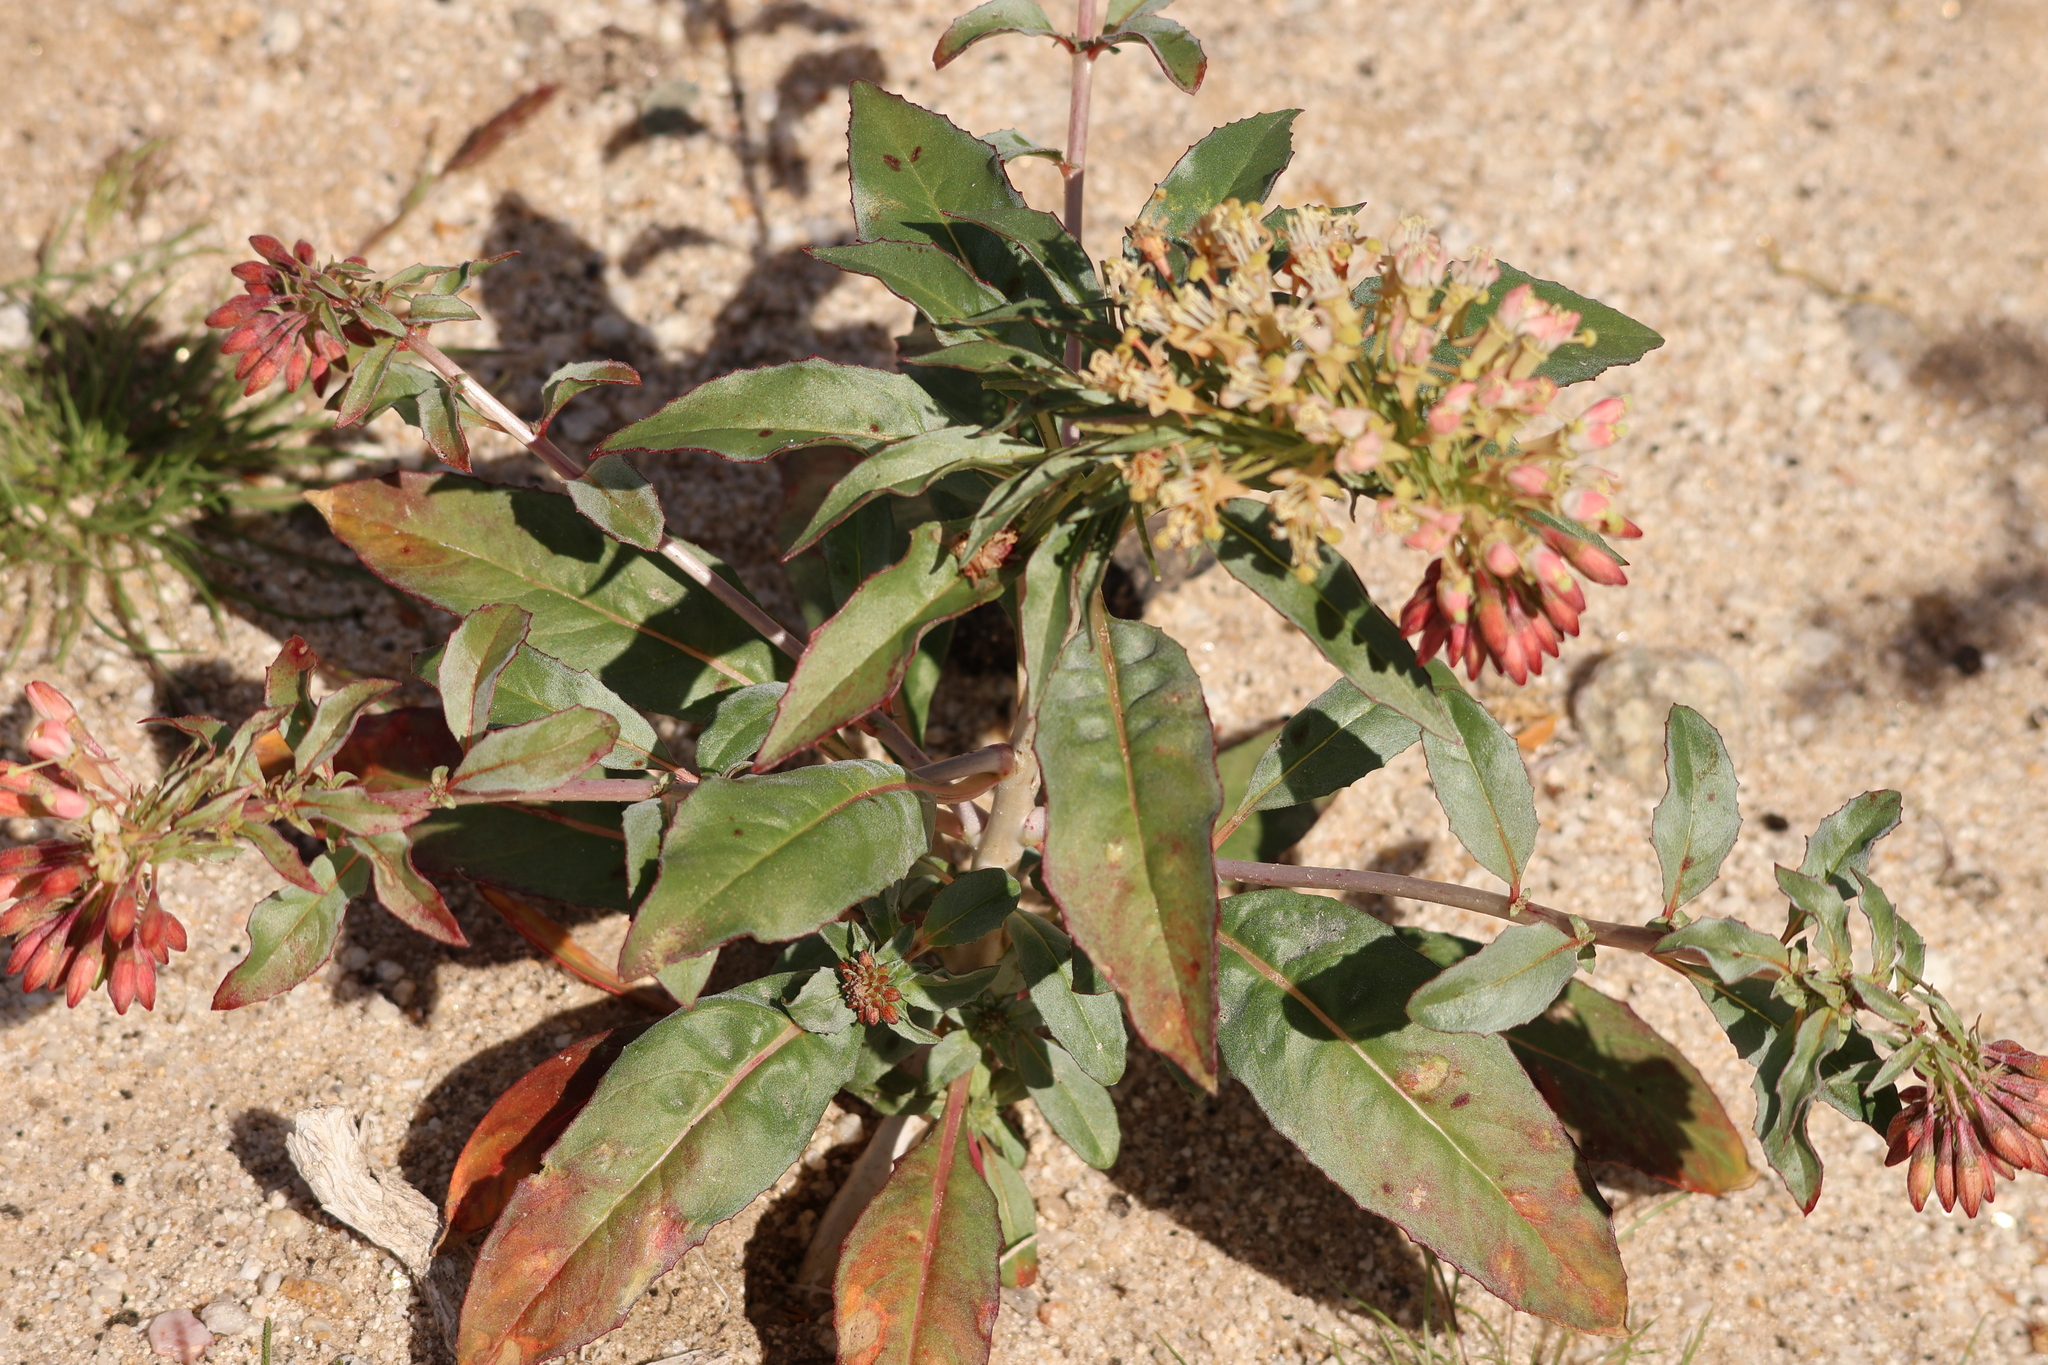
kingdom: Plantae
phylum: Tracheophyta
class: Magnoliopsida
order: Myrtales
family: Onagraceae
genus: Eremothera
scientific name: Eremothera boothii
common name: Booth's evening primrose
